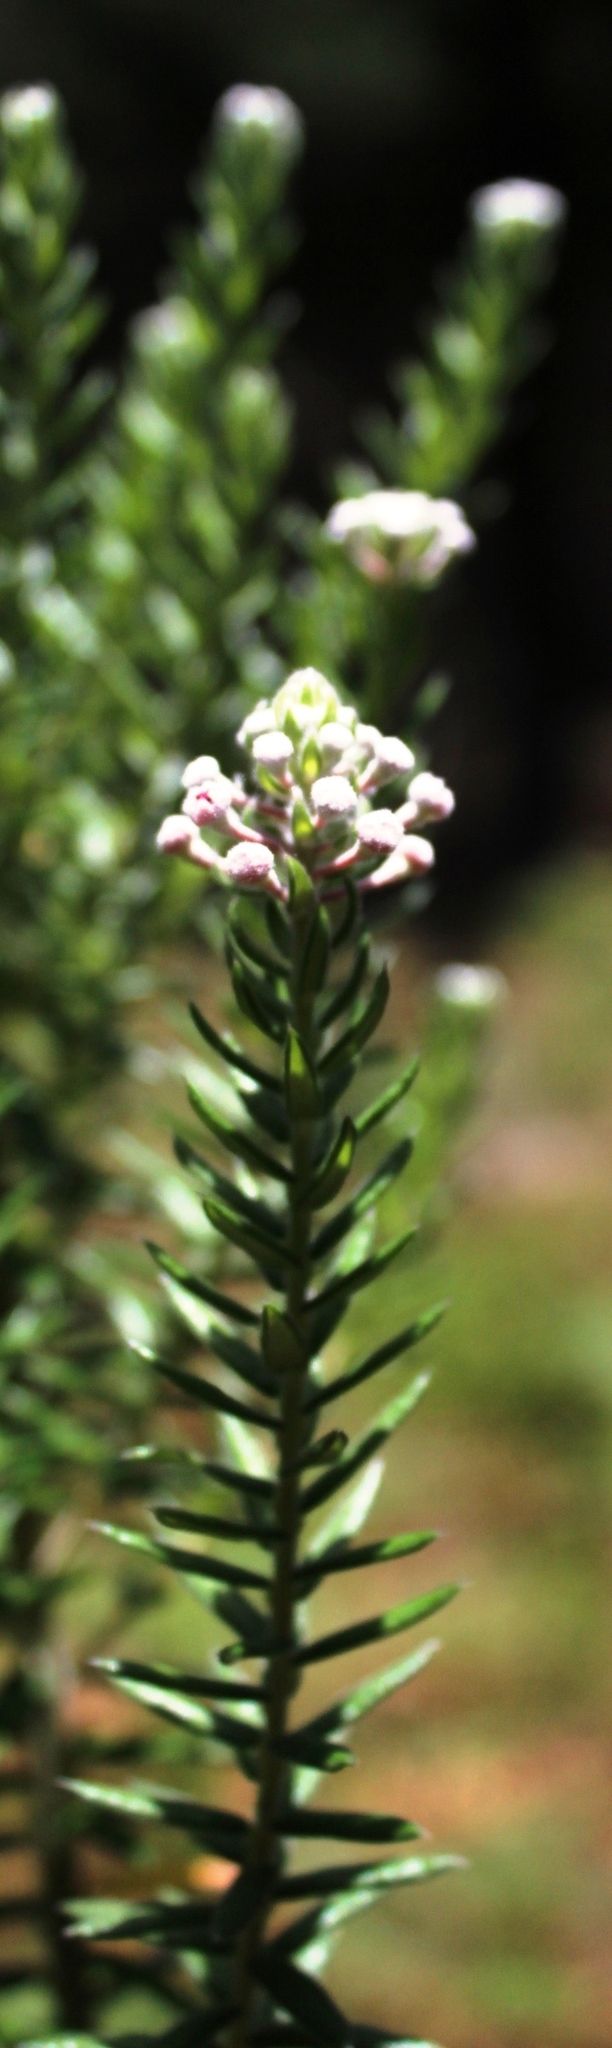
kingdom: Plantae
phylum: Tracheophyta
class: Magnoliopsida
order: Rosales
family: Rhamnaceae
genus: Phylica
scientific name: Phylica pinea
